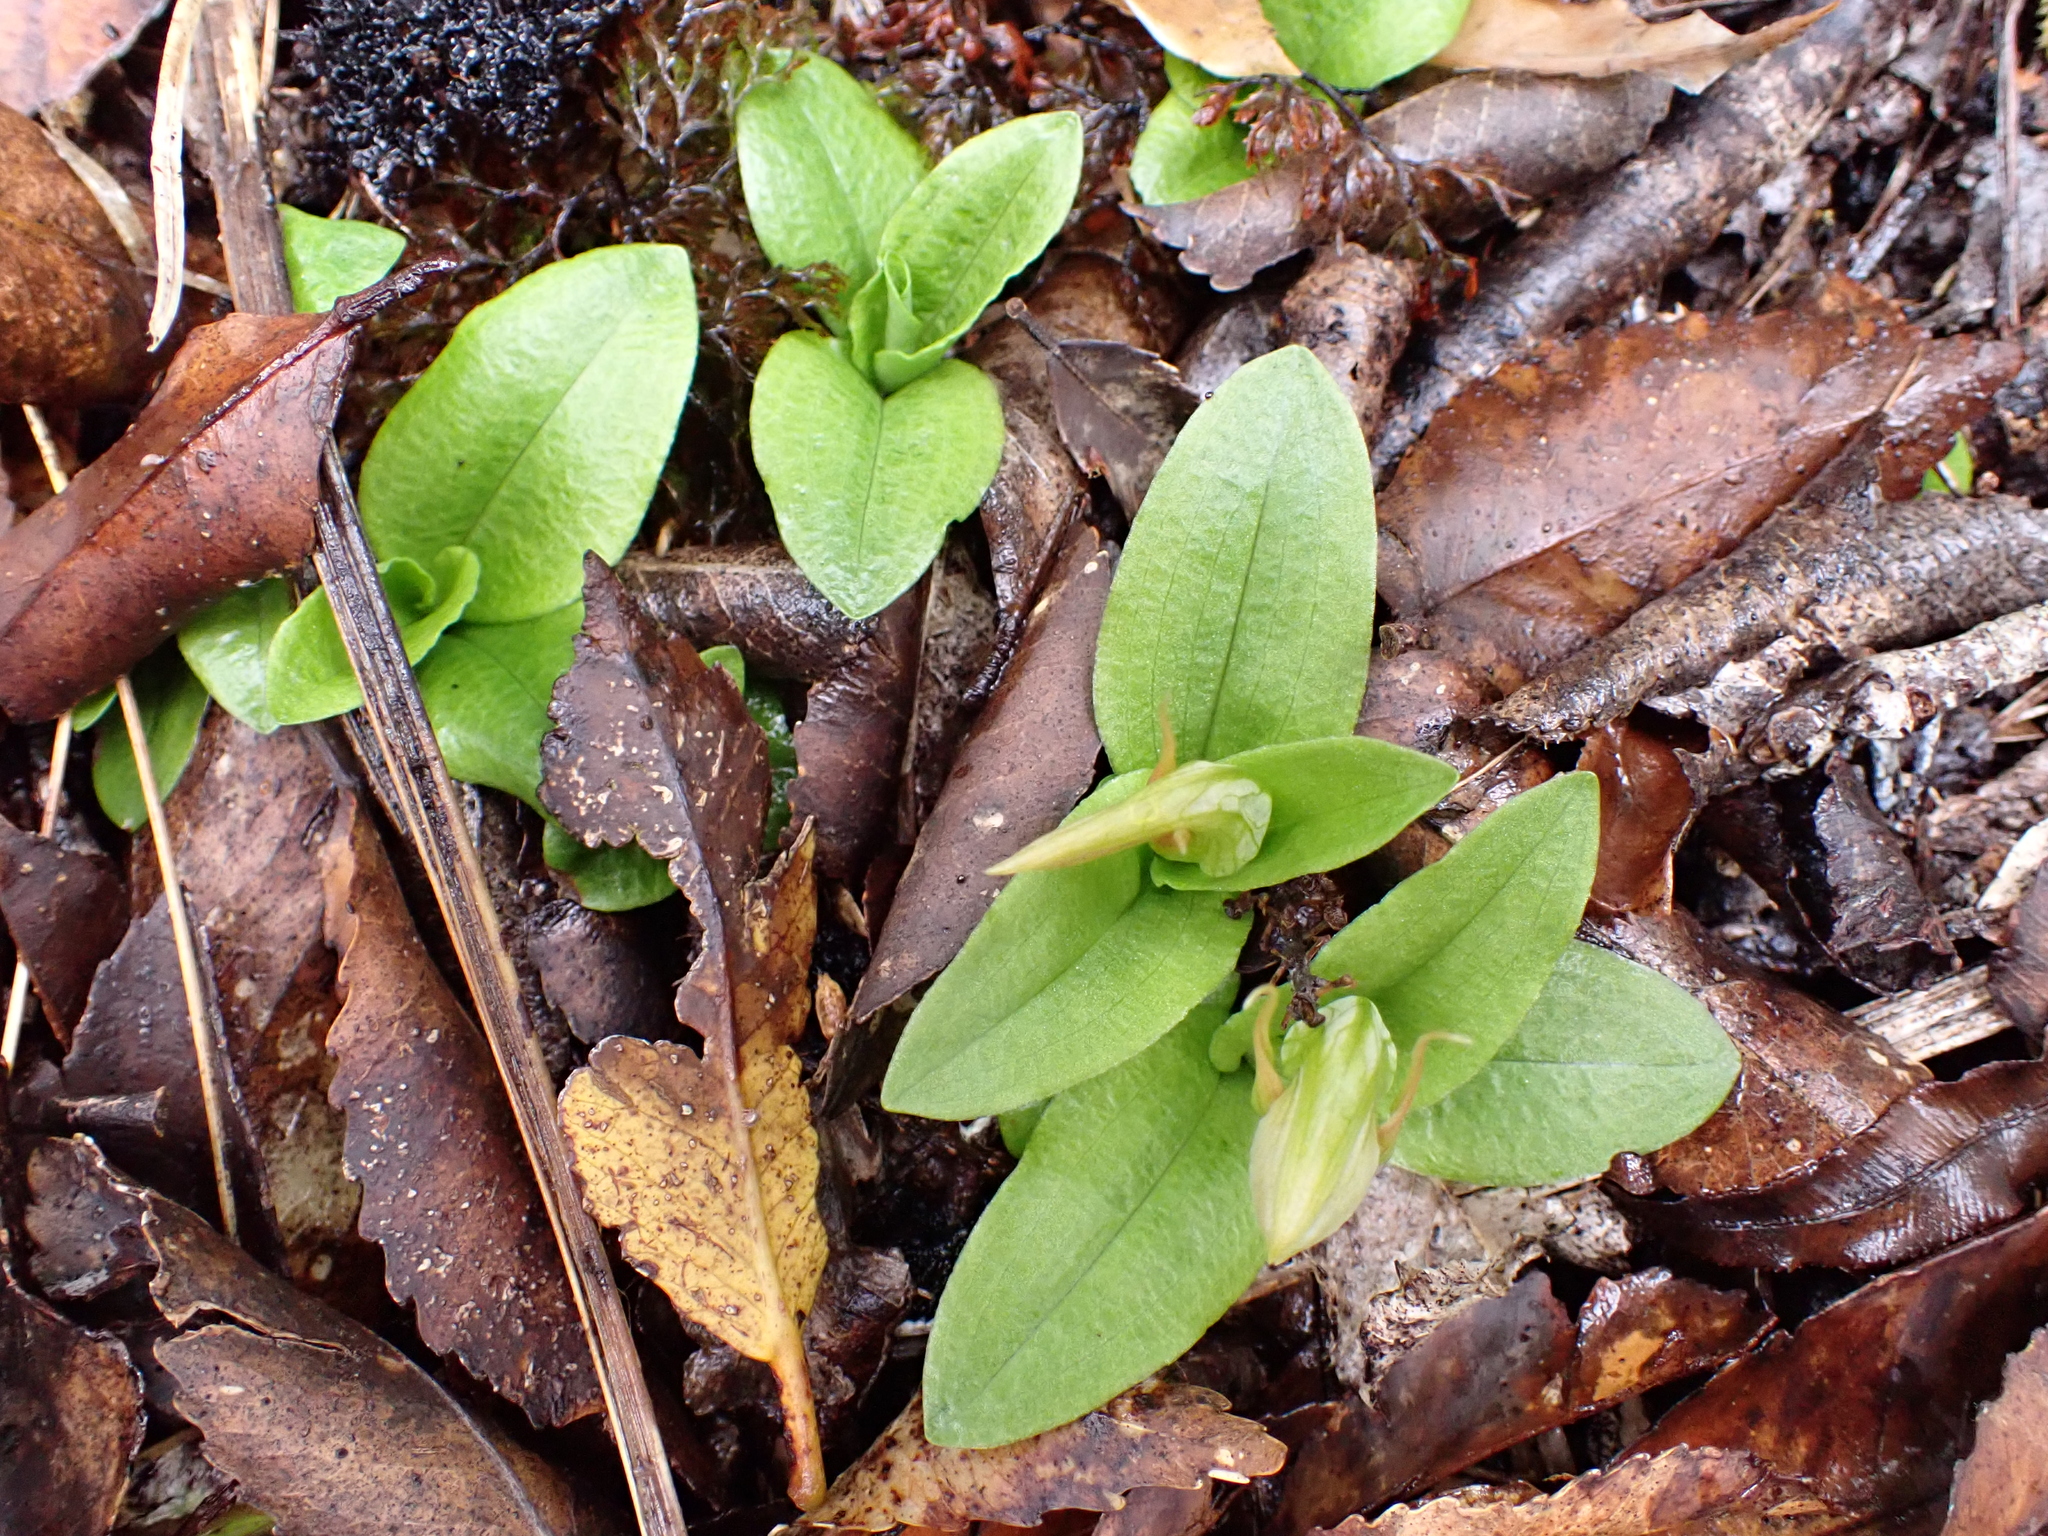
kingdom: Plantae
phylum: Tracheophyta
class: Liliopsida
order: Asparagales
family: Orchidaceae
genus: Pterostylis
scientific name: Pterostylis venosa
